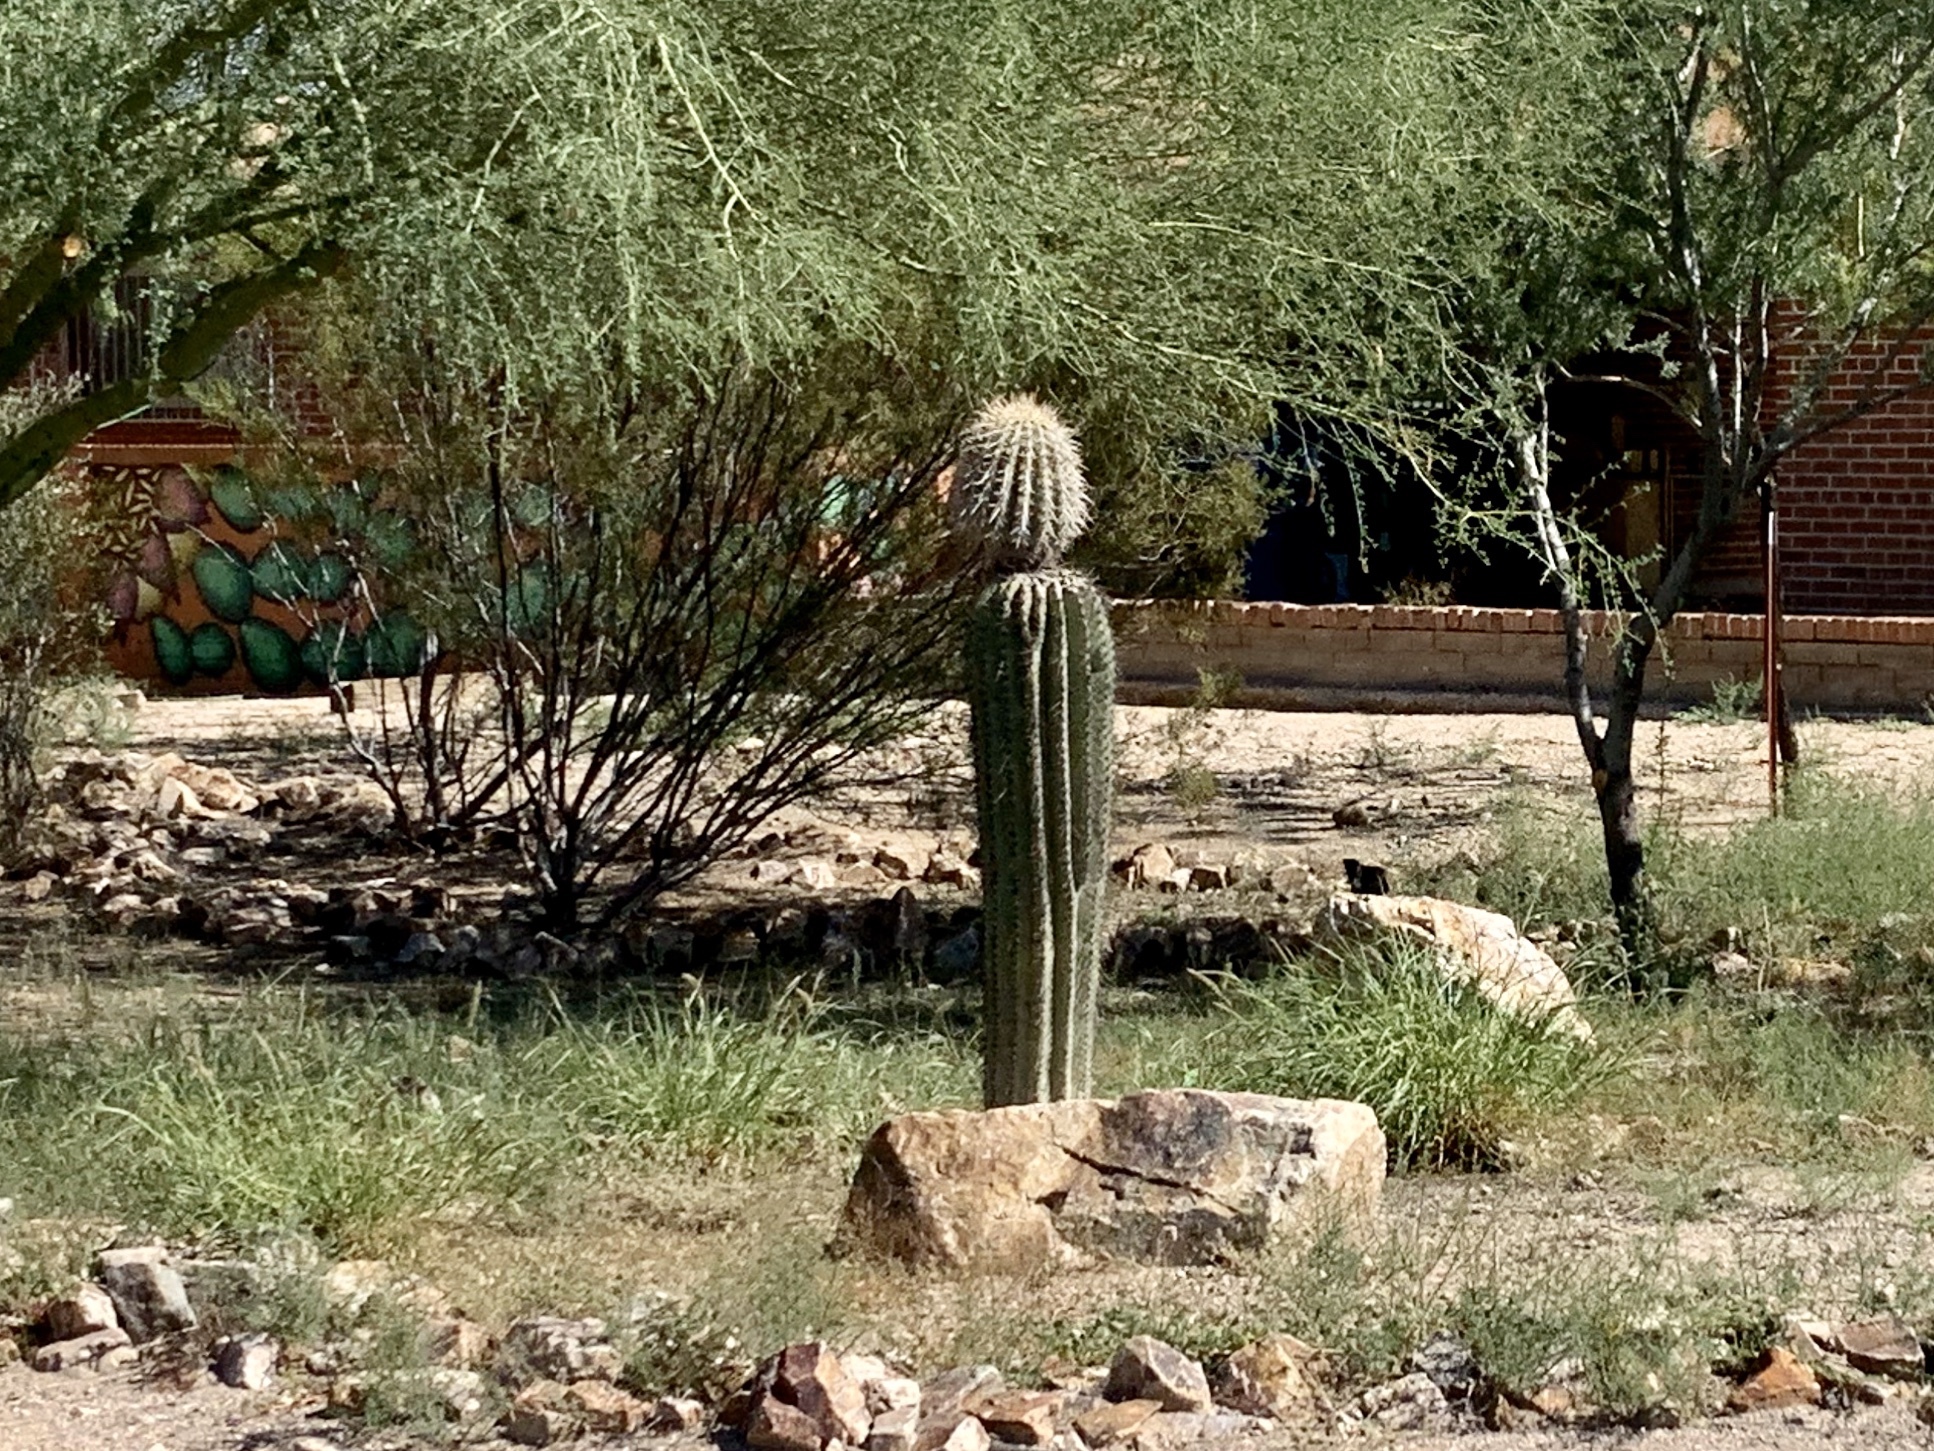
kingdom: Plantae
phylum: Tracheophyta
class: Magnoliopsida
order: Caryophyllales
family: Cactaceae
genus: Carnegiea
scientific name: Carnegiea gigantea
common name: Saguaro
